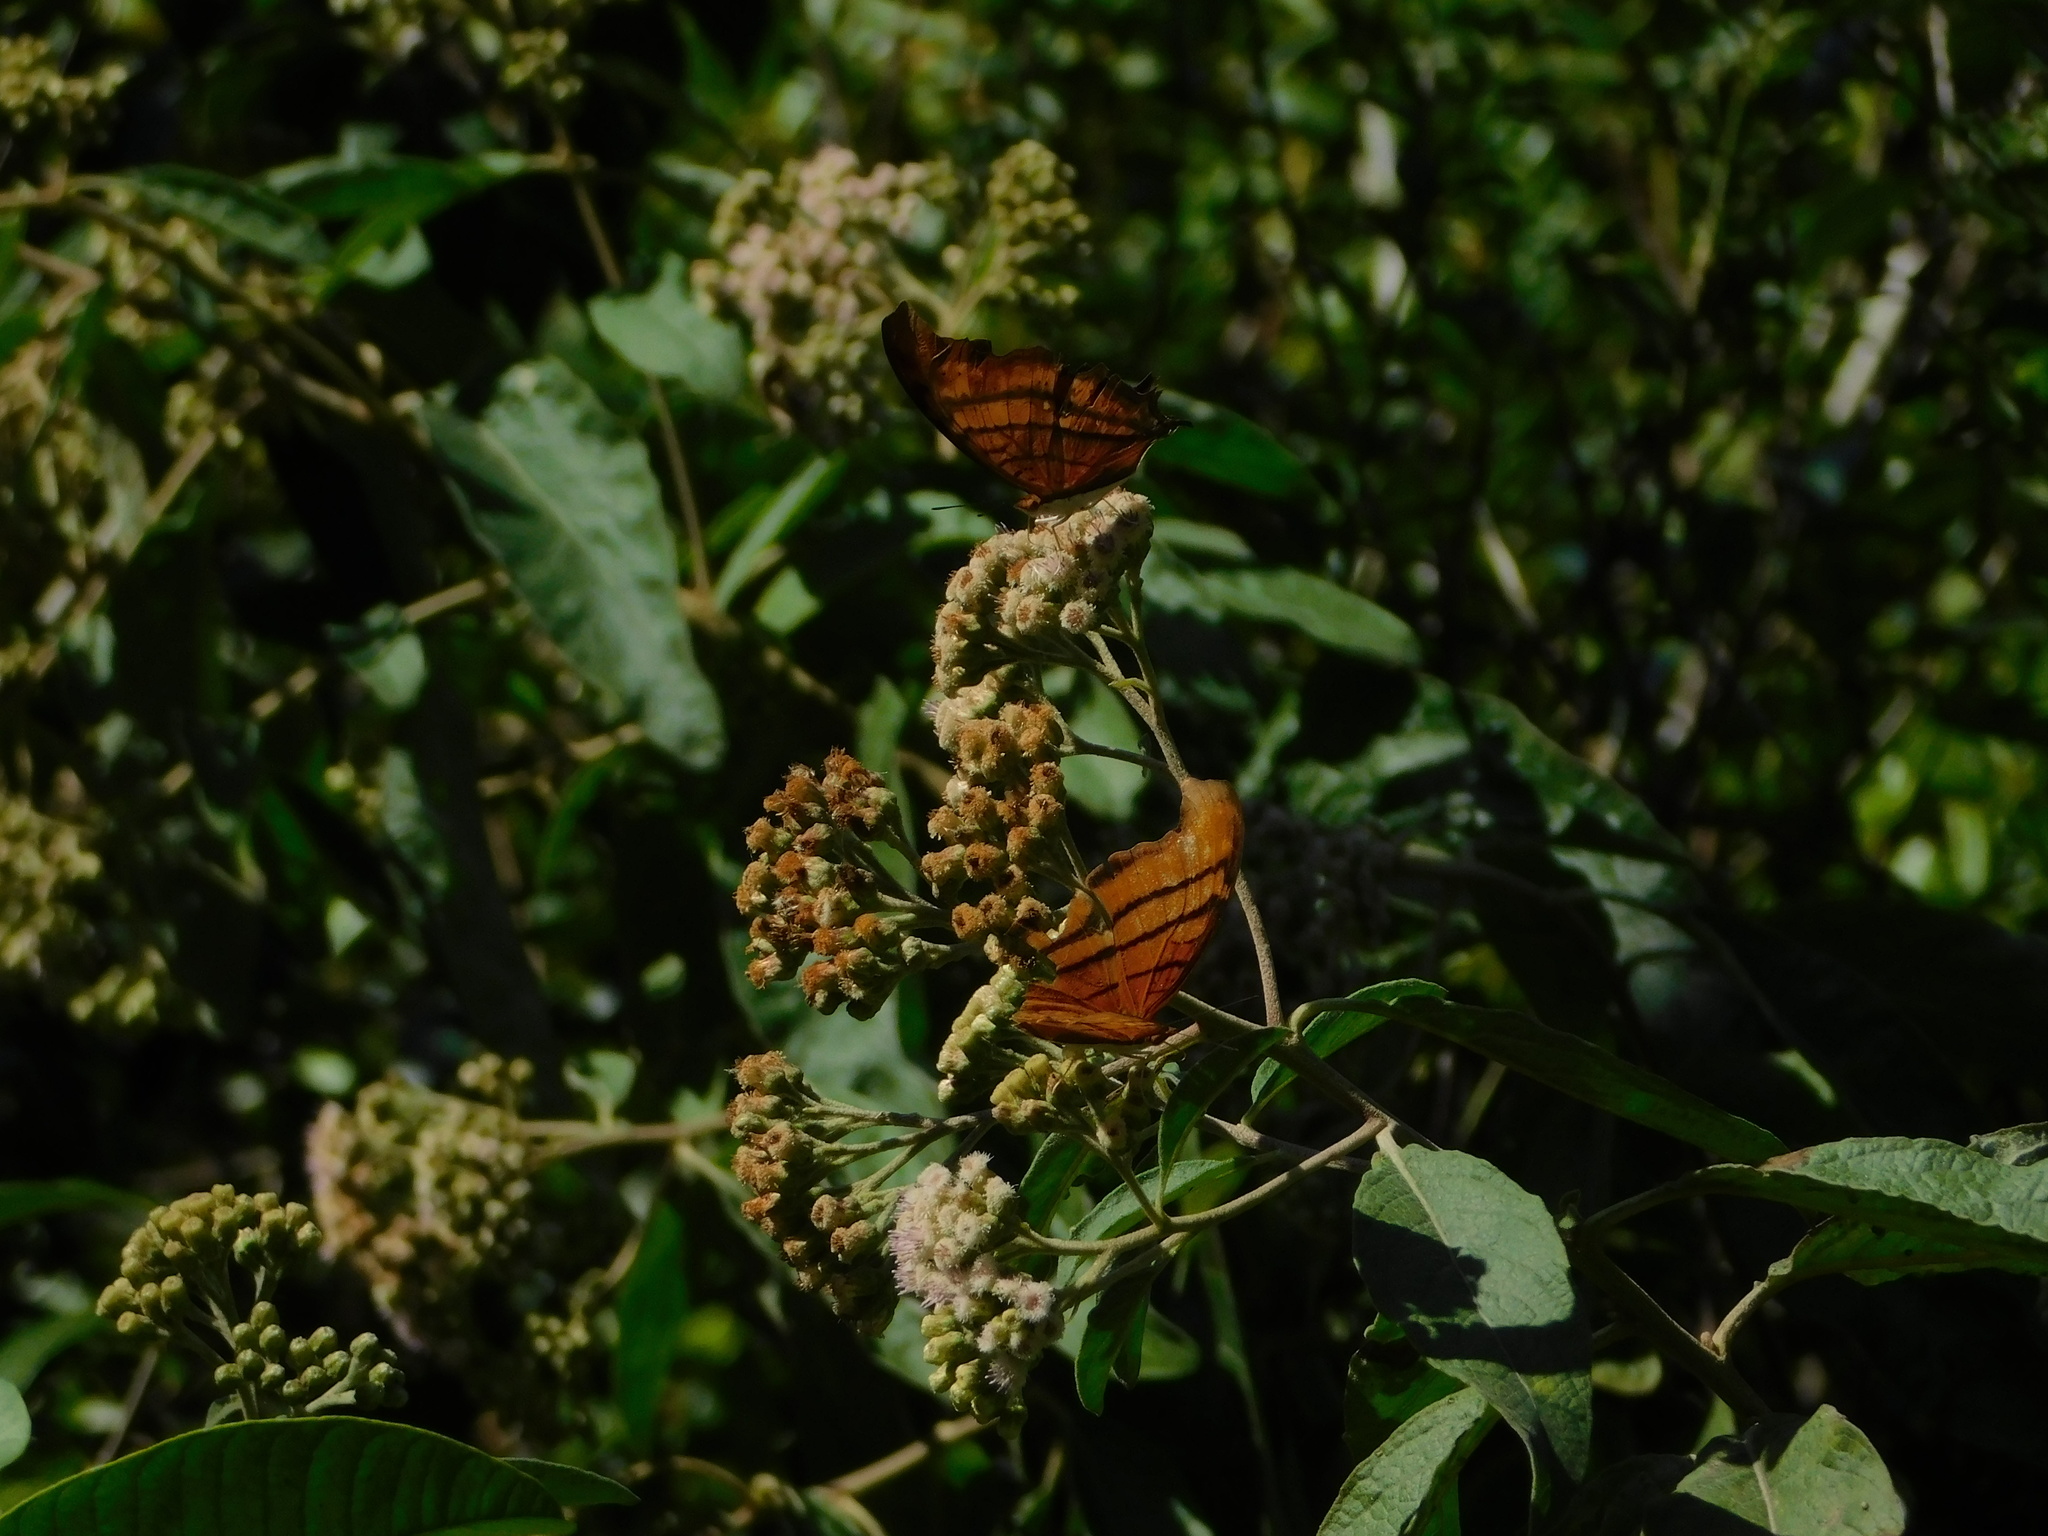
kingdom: Animalia
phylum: Arthropoda
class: Insecta
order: Lepidoptera
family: Nymphalidae
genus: Marpesia
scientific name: Marpesia petreus
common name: Red dagger wing
